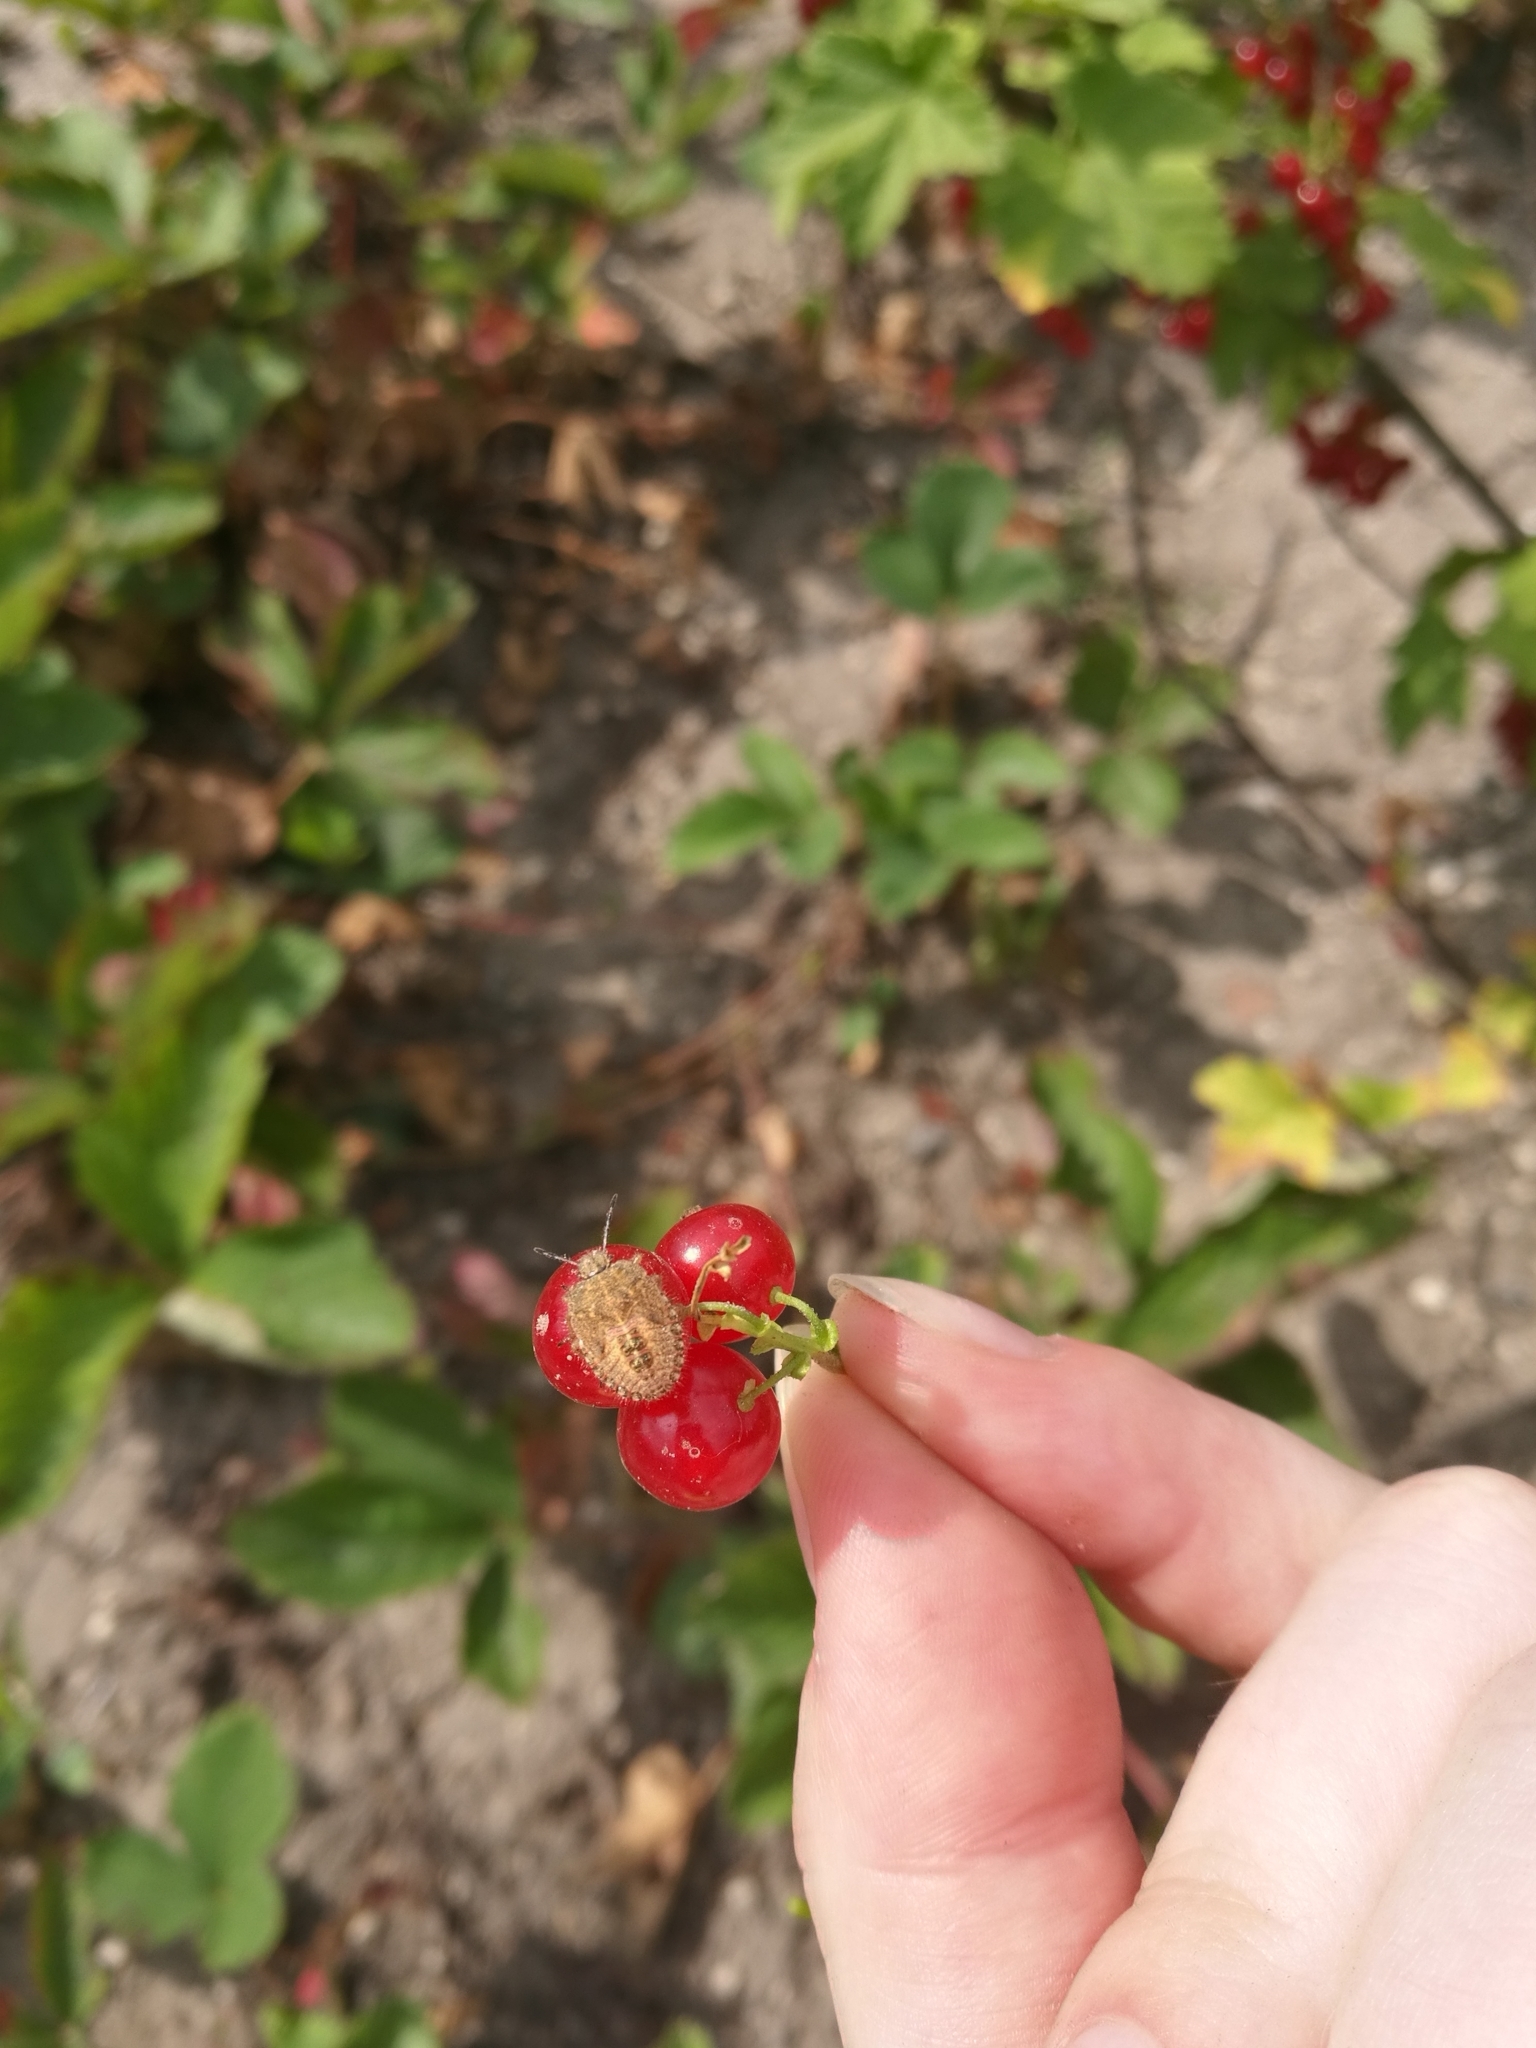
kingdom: Animalia
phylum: Arthropoda
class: Insecta
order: Hemiptera
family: Pentatomidae
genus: Dolycoris
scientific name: Dolycoris baccarum
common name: Sloe bug
